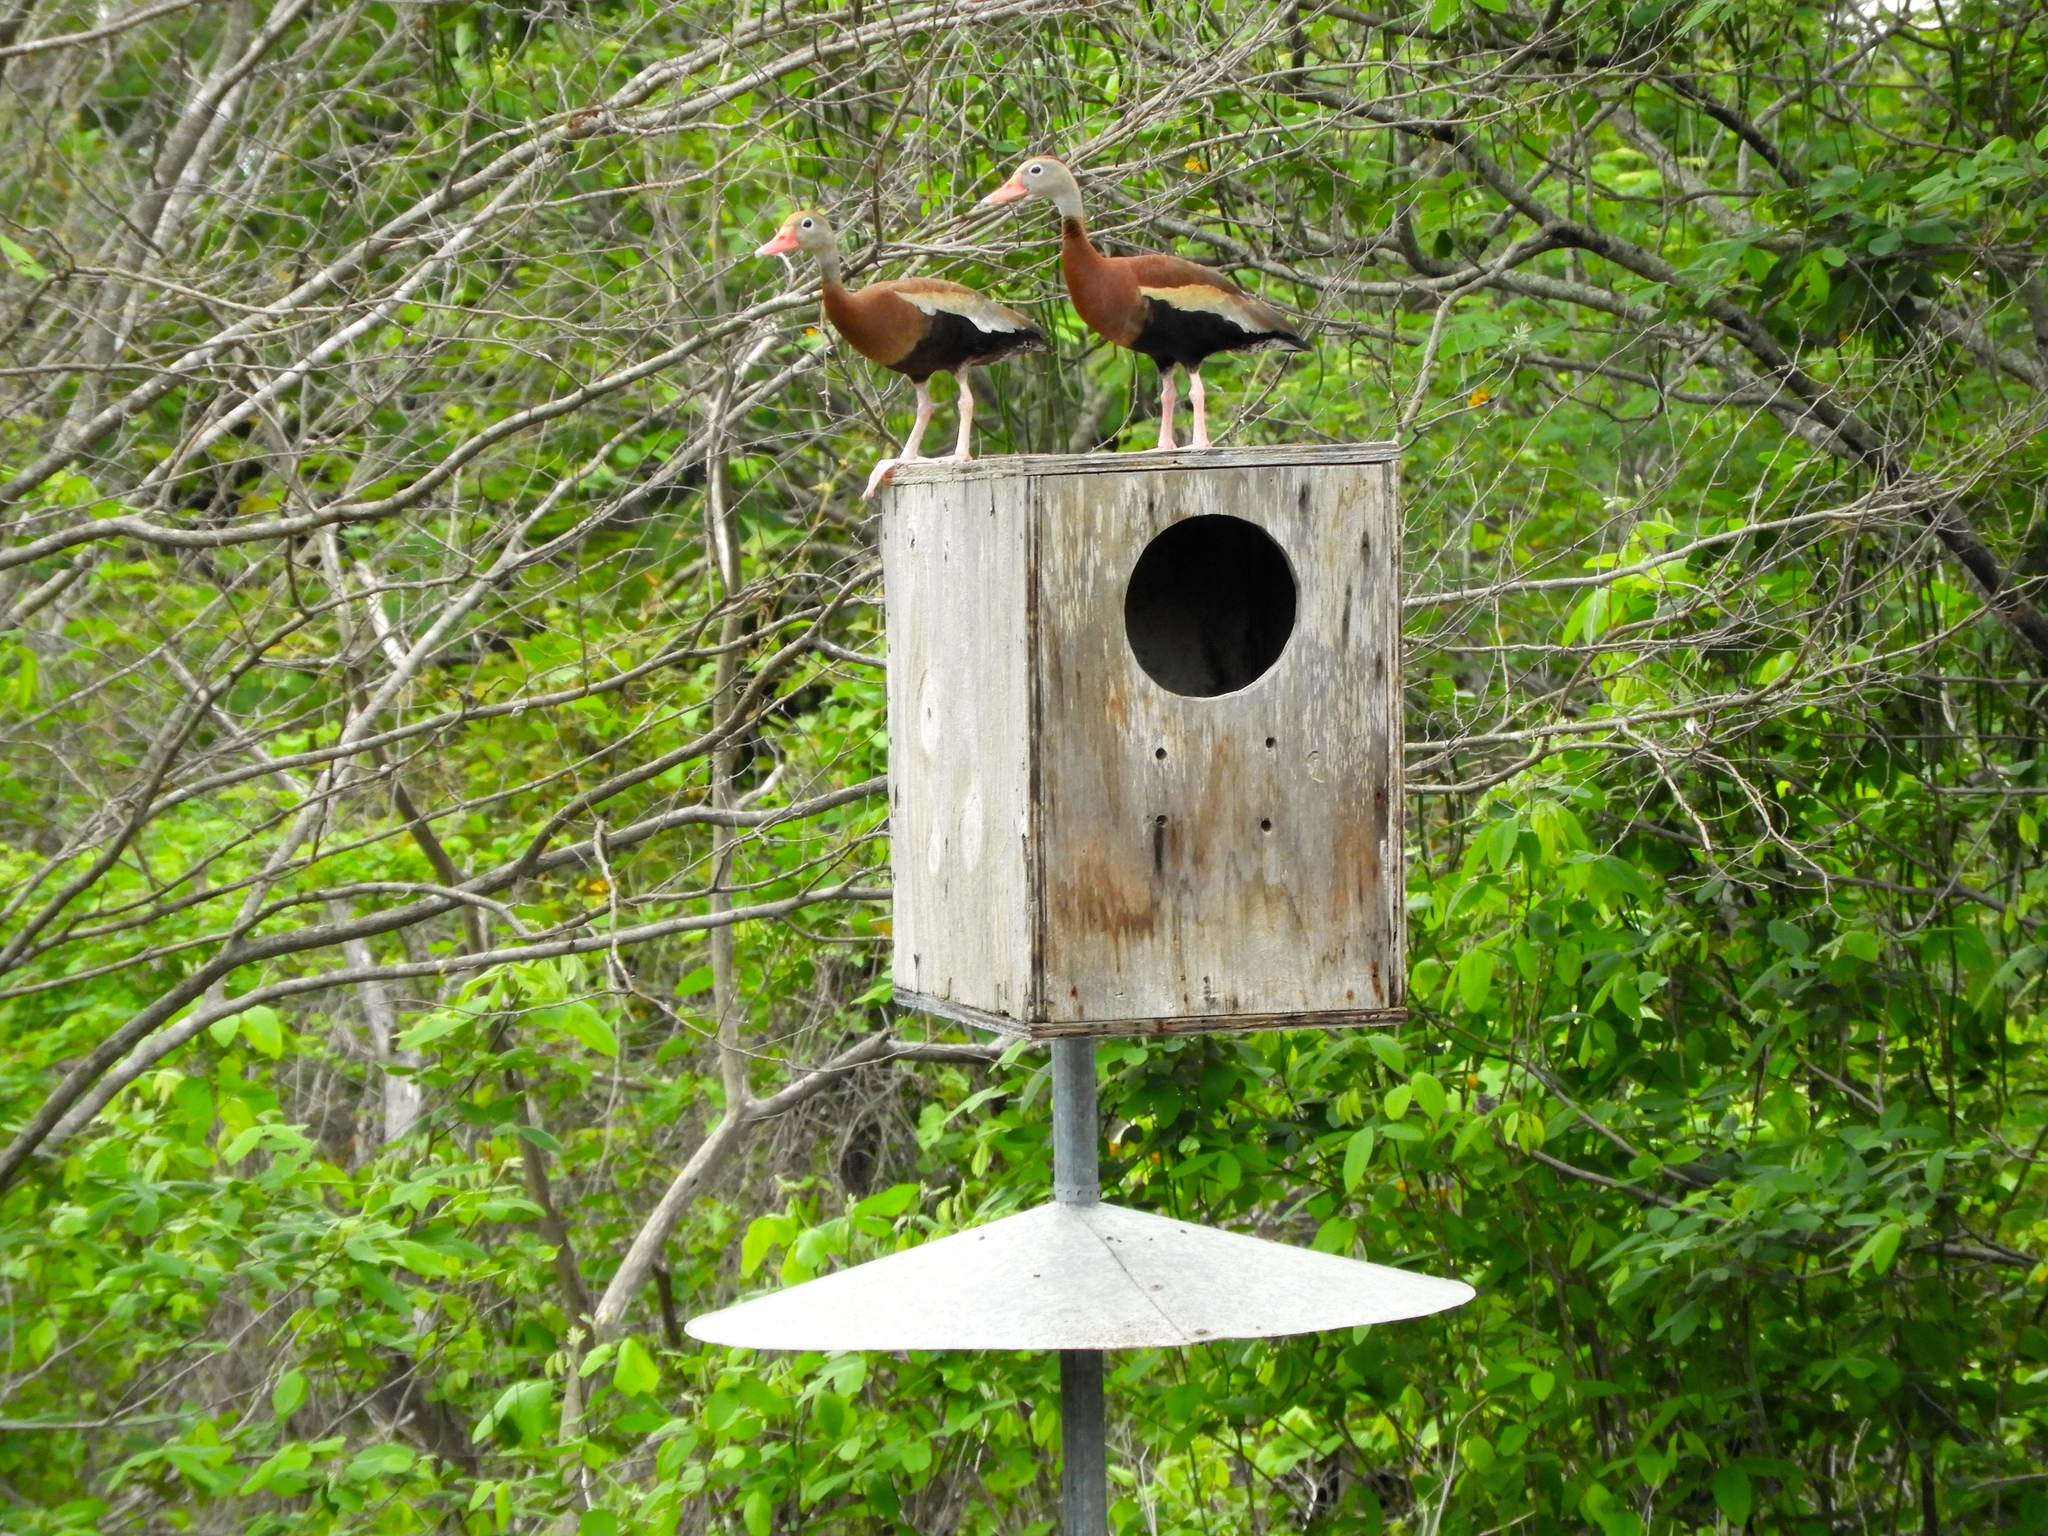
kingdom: Animalia
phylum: Chordata
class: Aves
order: Anseriformes
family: Anatidae
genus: Dendrocygna
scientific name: Dendrocygna autumnalis
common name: Black-bellied whistling duck
